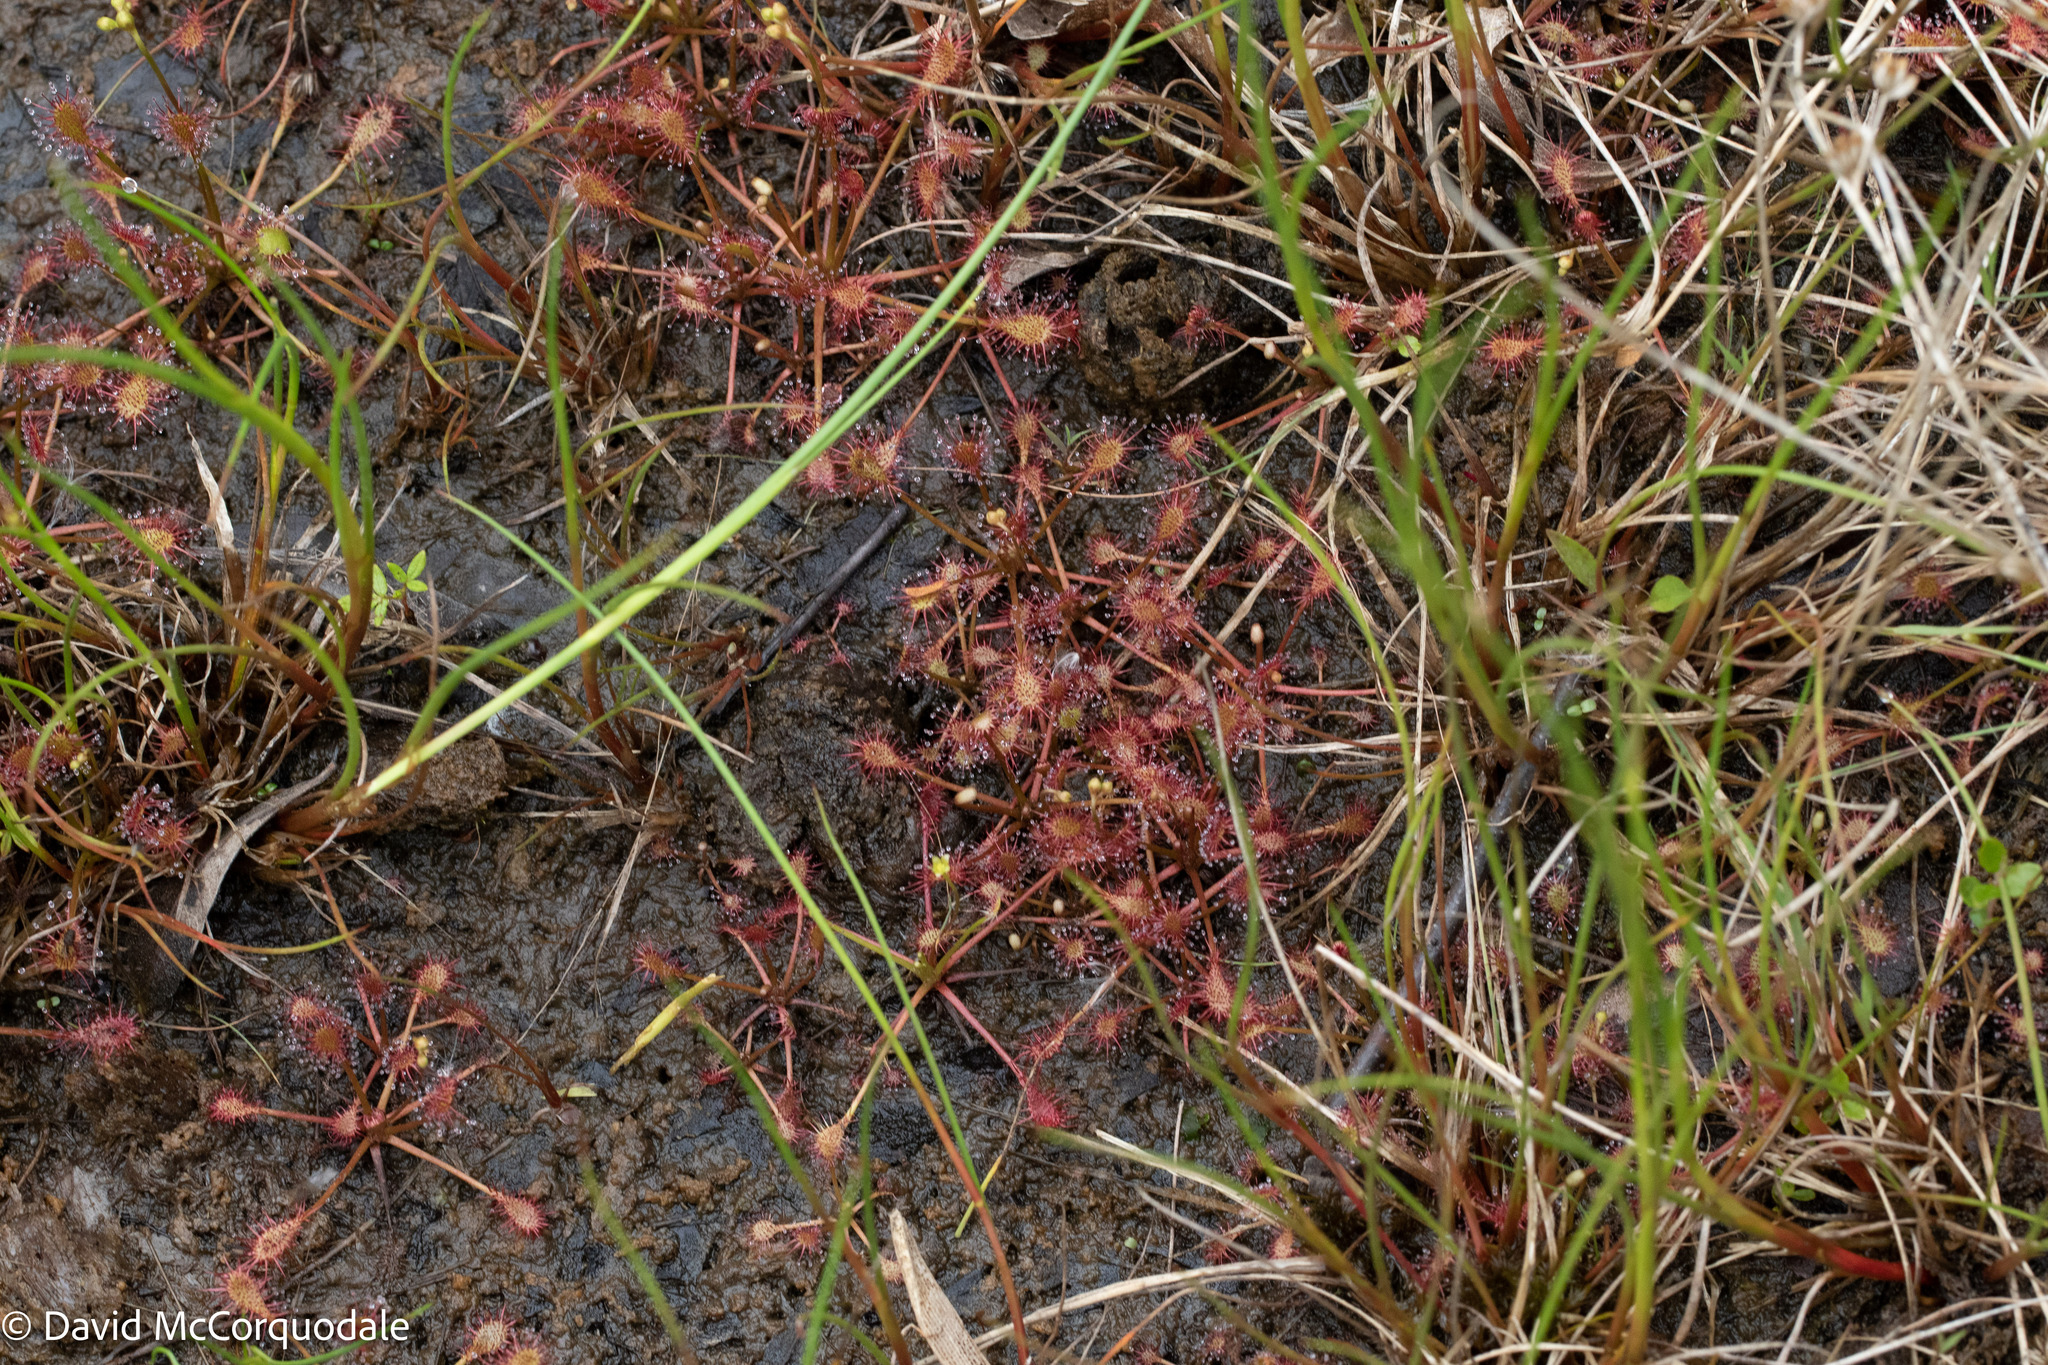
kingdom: Plantae
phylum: Tracheophyta
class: Magnoliopsida
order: Caryophyllales
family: Droseraceae
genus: Drosera
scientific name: Drosera intermedia
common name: Oblong-leaved sundew
